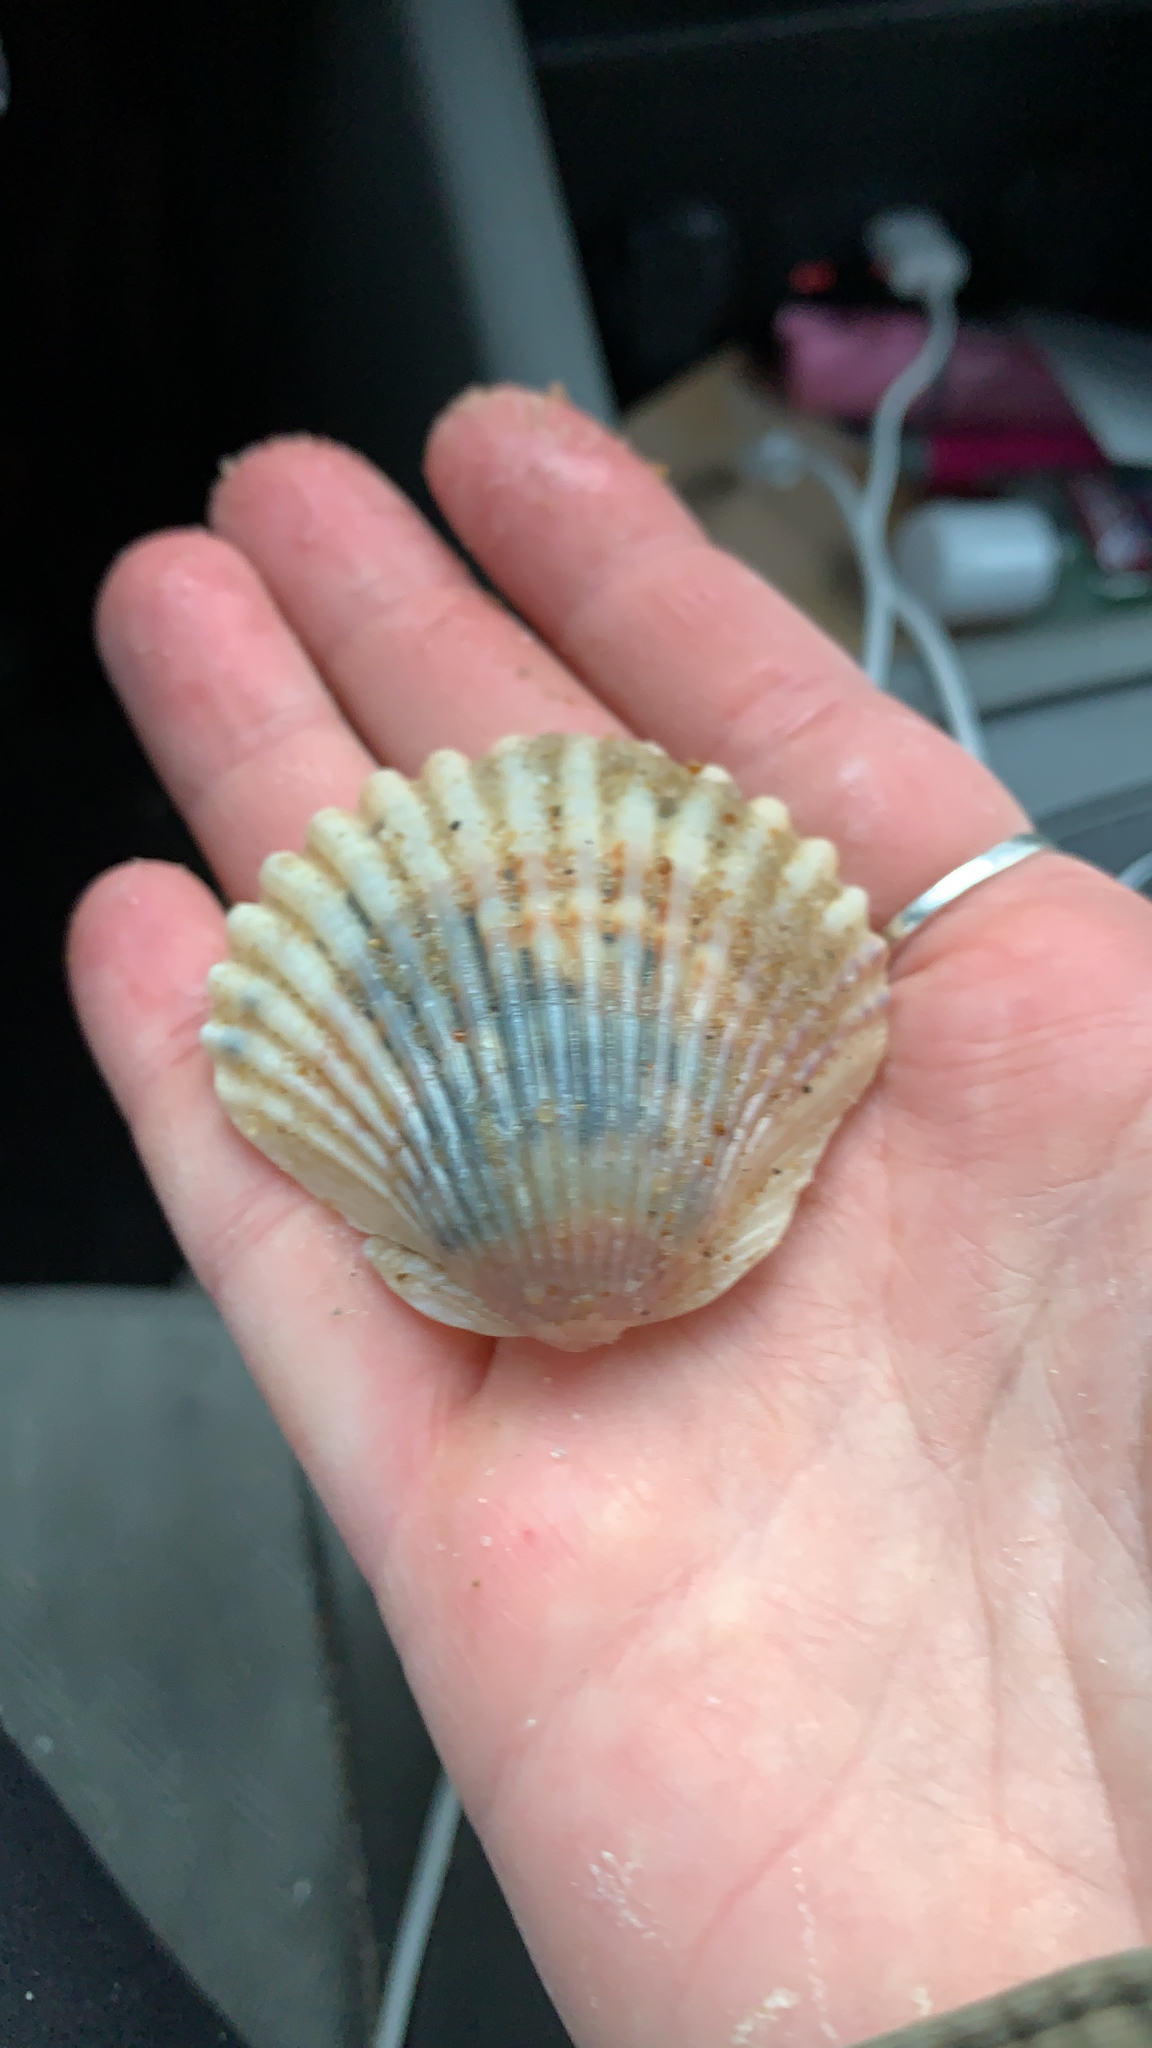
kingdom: Animalia
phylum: Mollusca
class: Bivalvia
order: Pectinida
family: Pectinidae
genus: Argopecten
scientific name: Argopecten irradians
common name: Atlantic bay scallop
